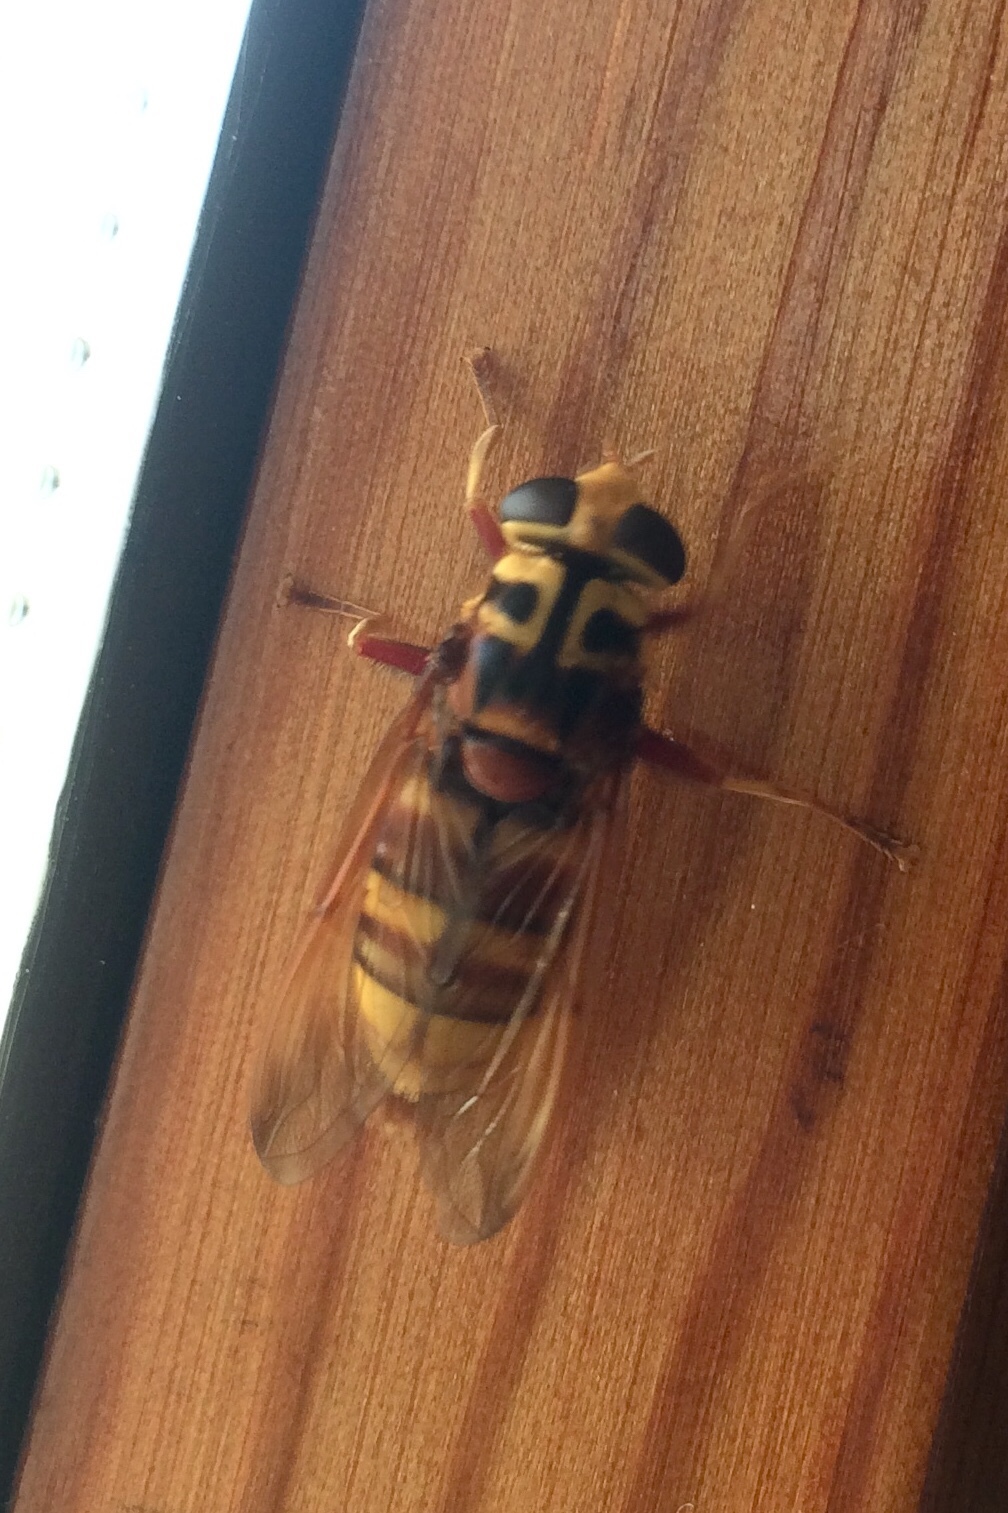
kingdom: Animalia
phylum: Arthropoda
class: Insecta
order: Diptera
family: Syrphidae
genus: Milesia
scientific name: Milesia crabroniformis
